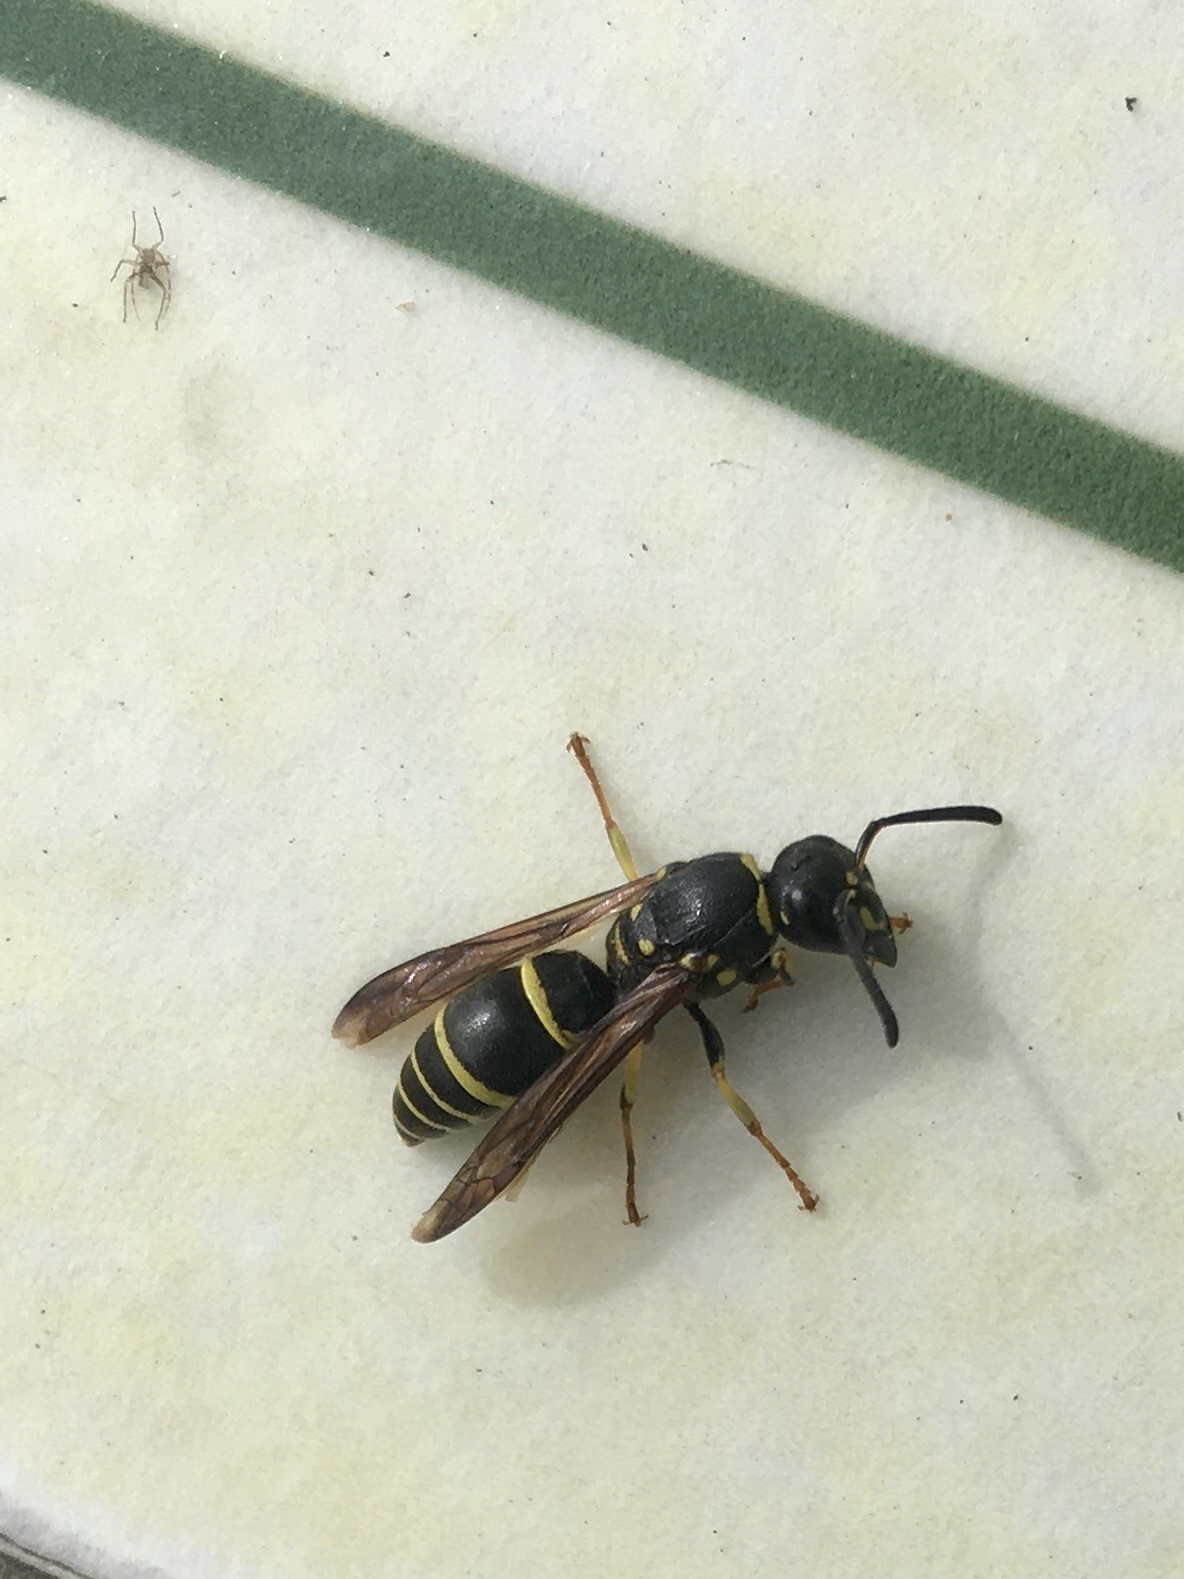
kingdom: Animalia
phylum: Arthropoda
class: Insecta
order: Hymenoptera
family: Vespidae
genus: Ancistrocerus
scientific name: Ancistrocerus adiabatus
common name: Bramble mason wasp
